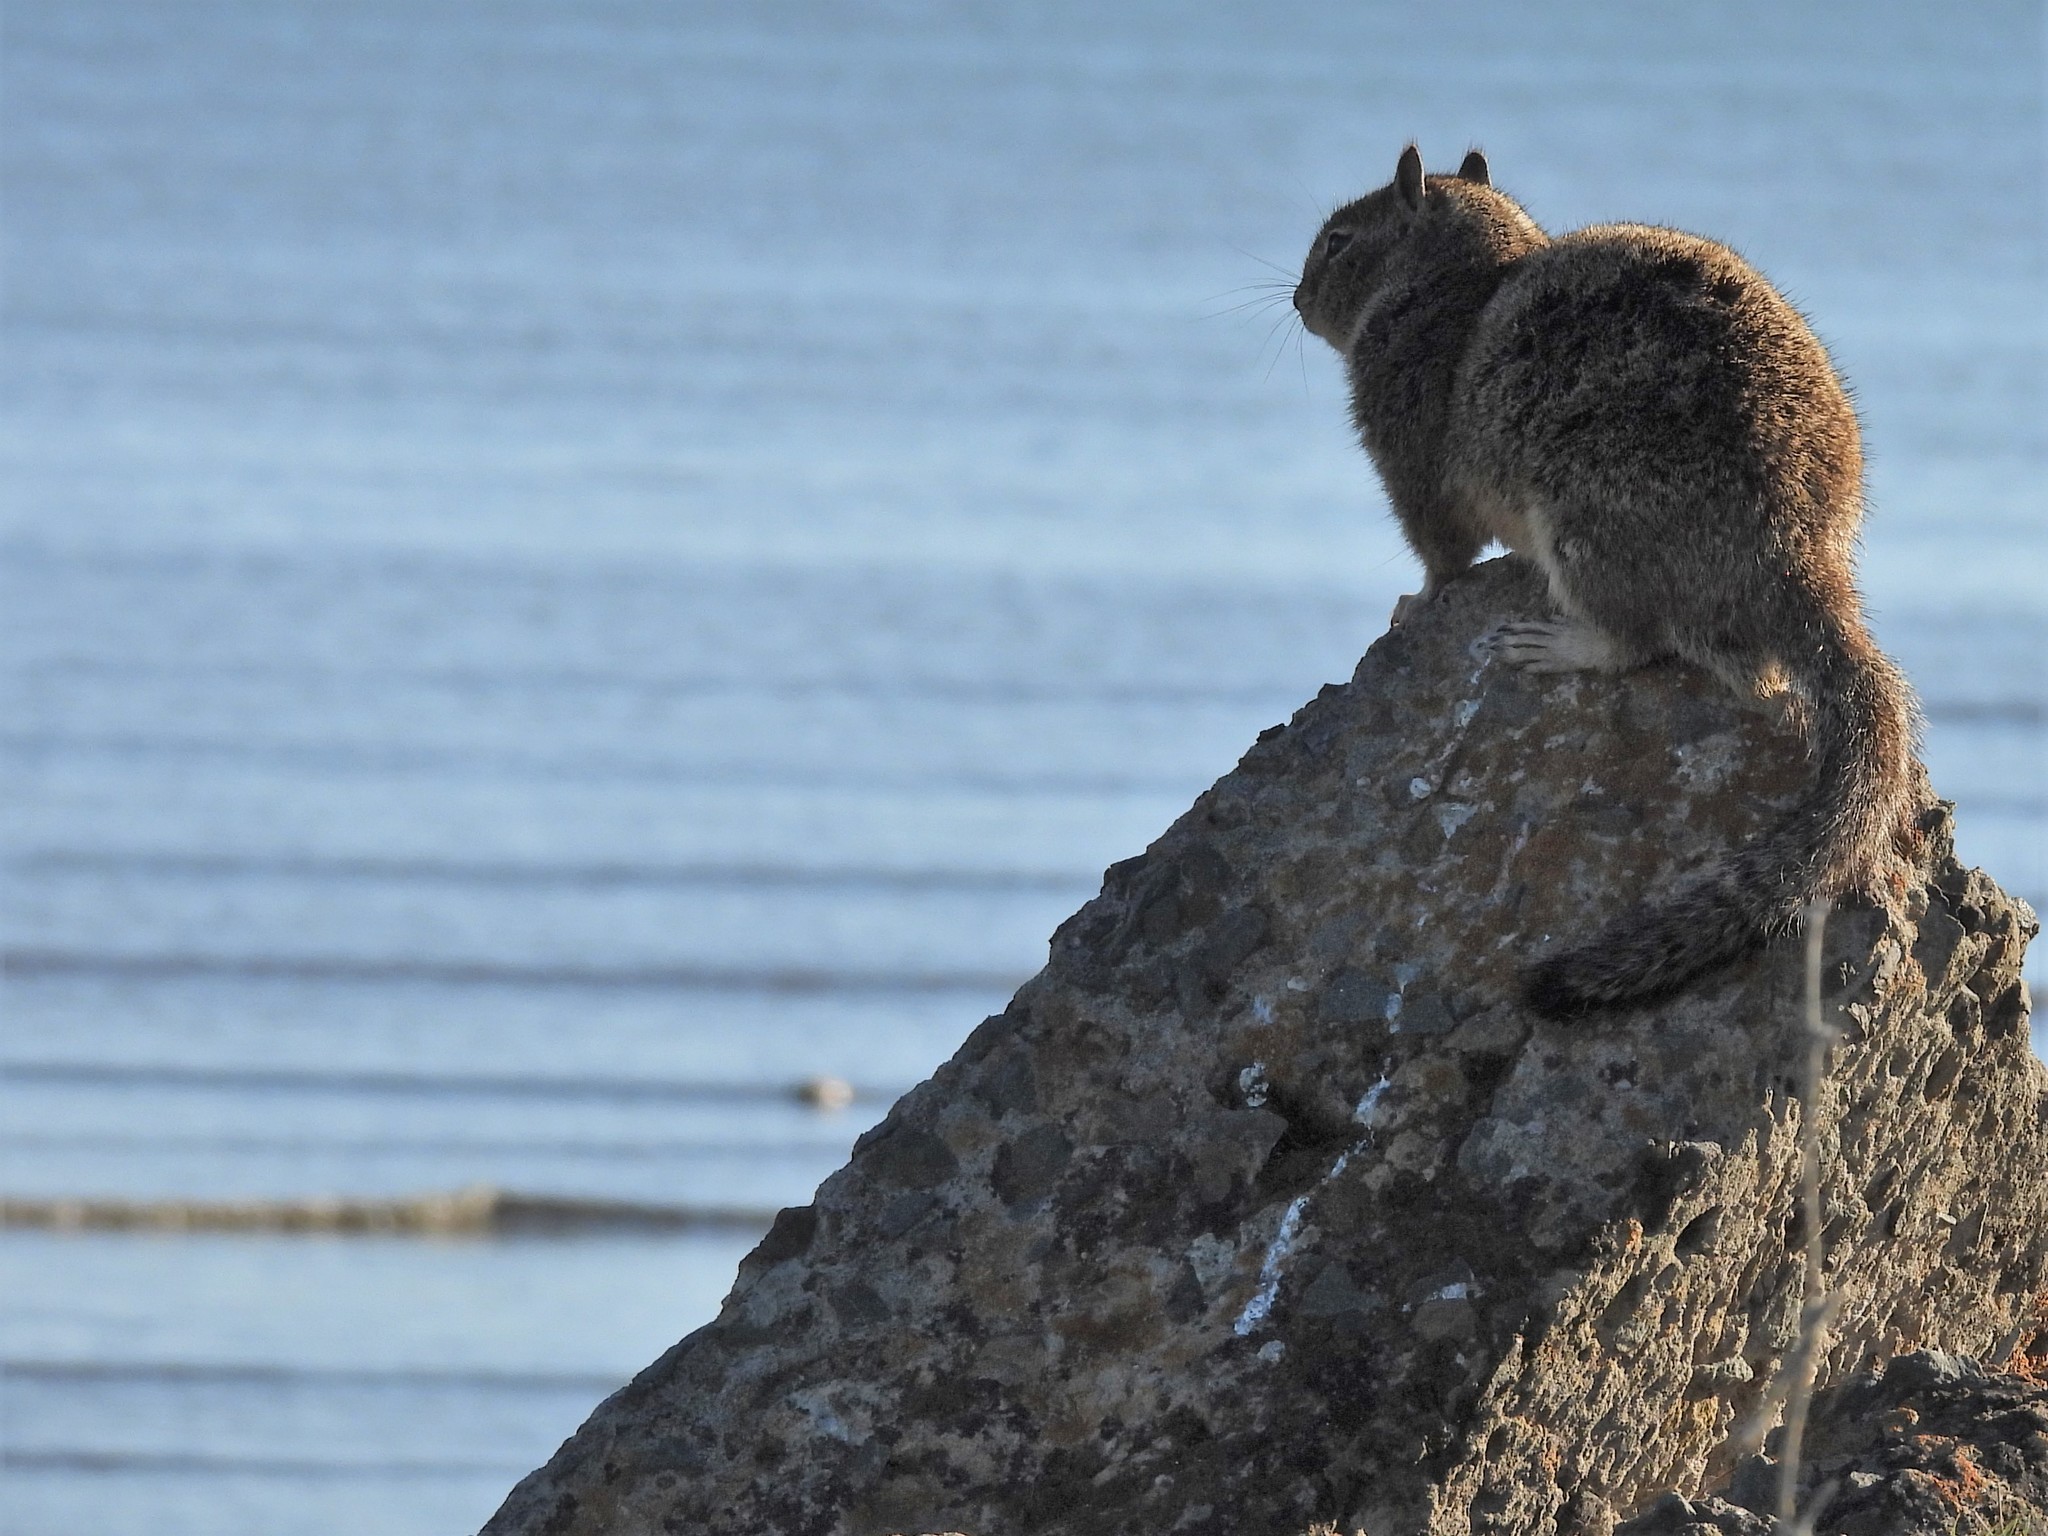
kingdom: Animalia
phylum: Chordata
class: Mammalia
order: Rodentia
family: Sciuridae
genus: Otospermophilus
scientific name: Otospermophilus beecheyi
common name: California ground squirrel
